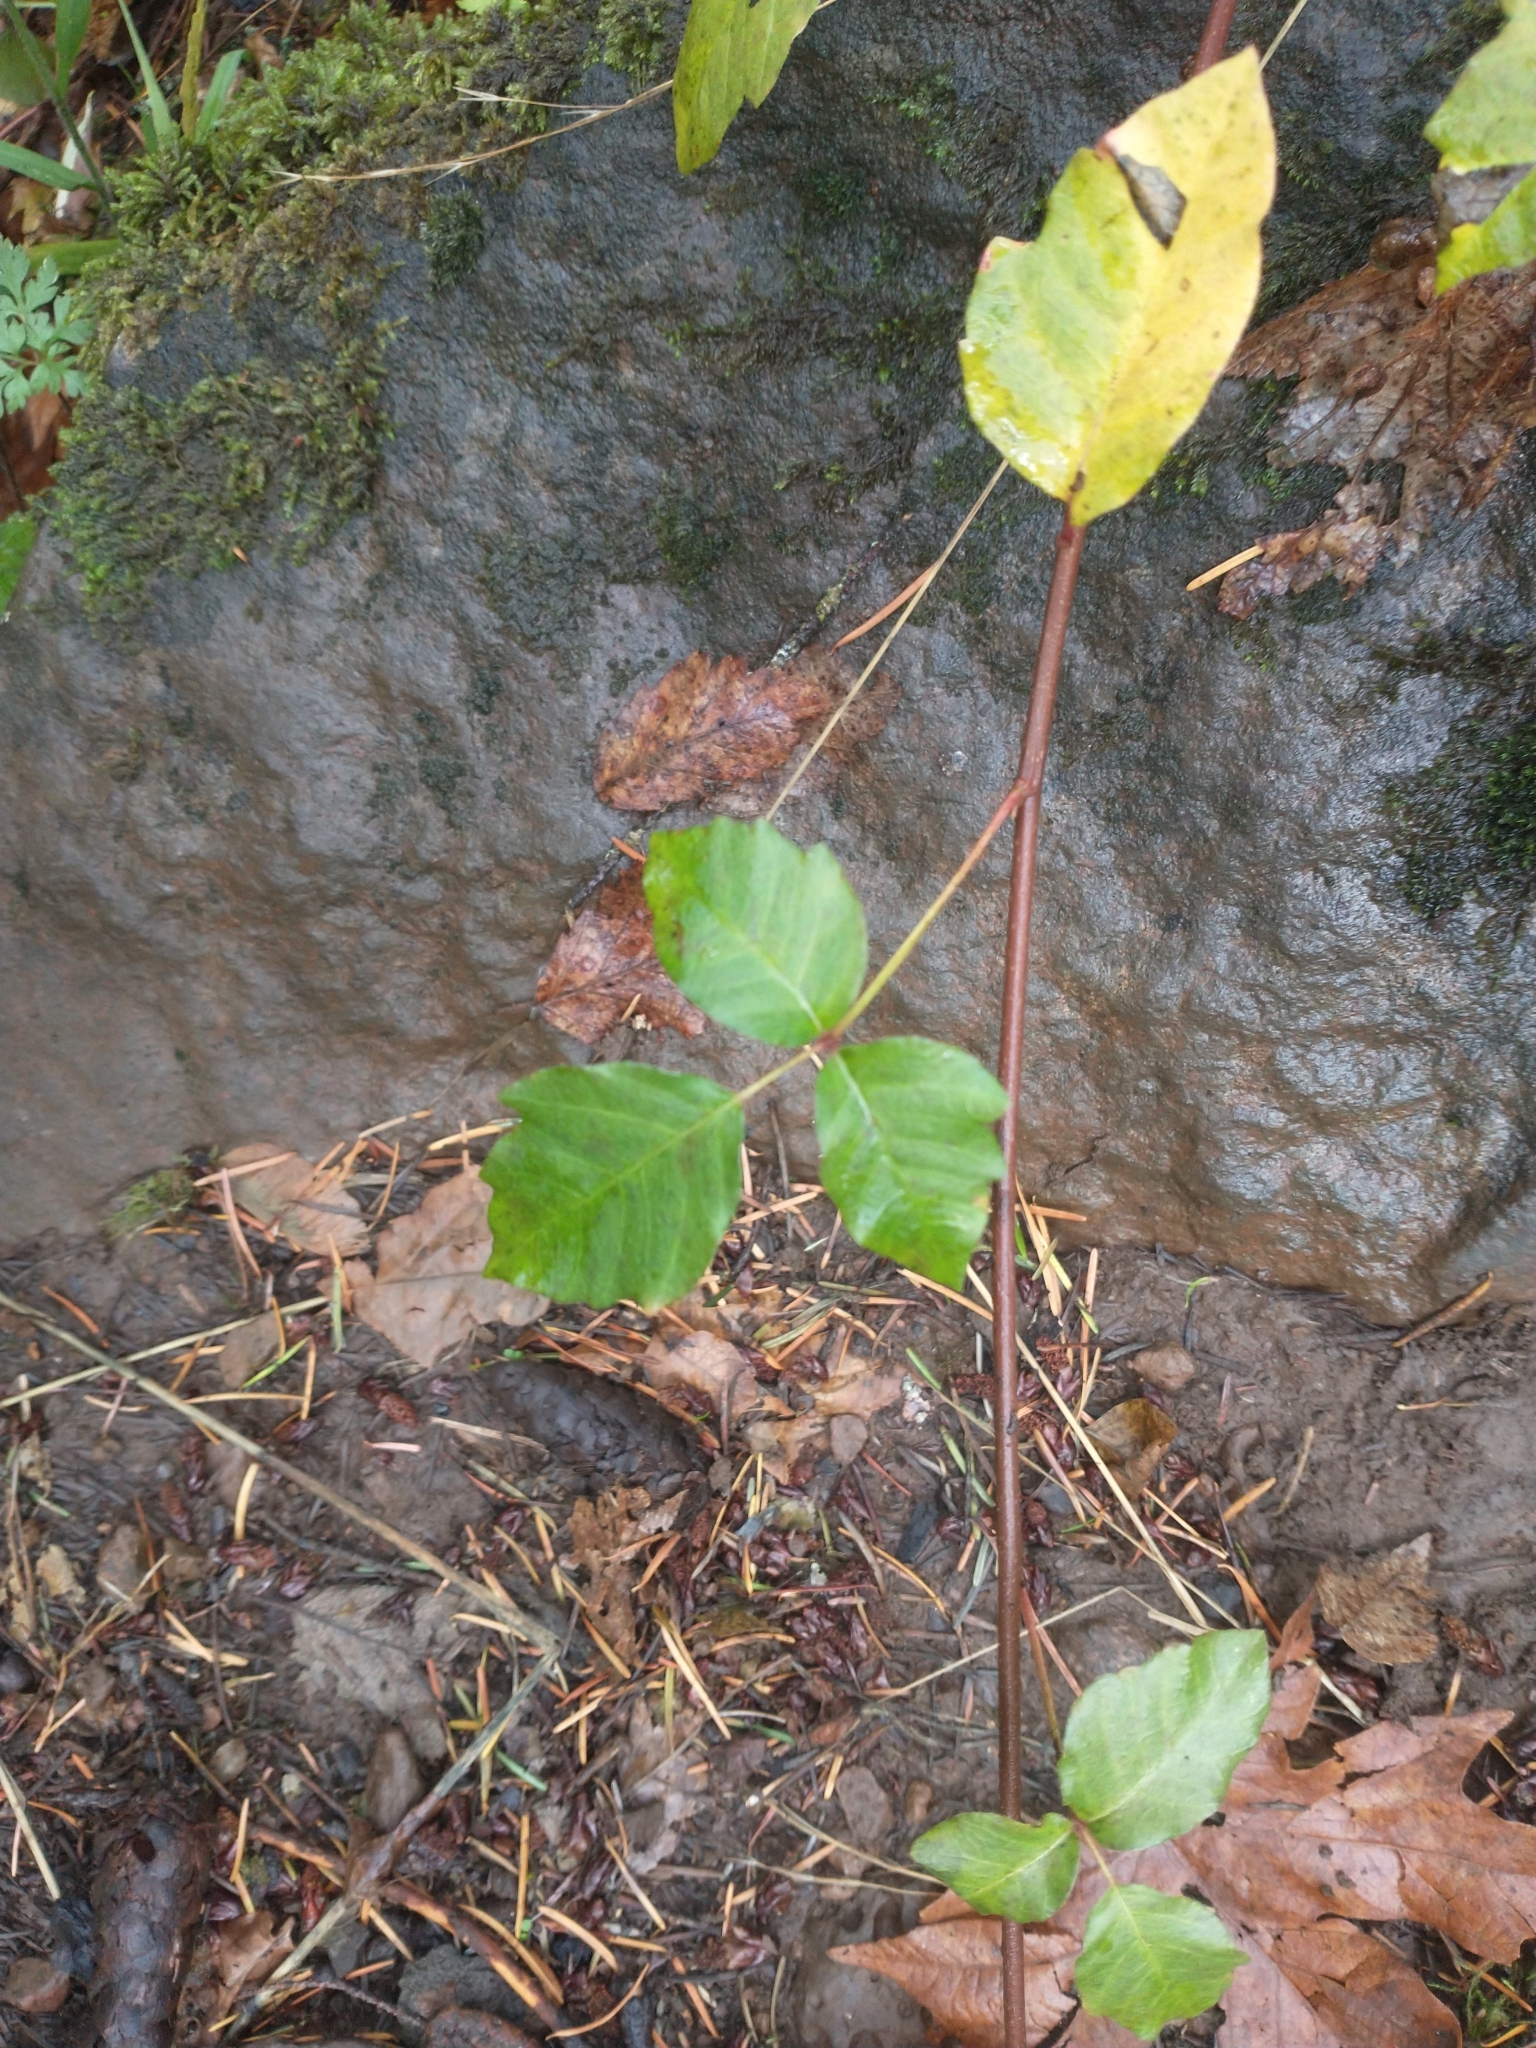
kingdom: Plantae
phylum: Tracheophyta
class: Magnoliopsida
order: Sapindales
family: Anacardiaceae
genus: Toxicodendron
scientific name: Toxicodendron diversilobum
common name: Pacific poison-oak
